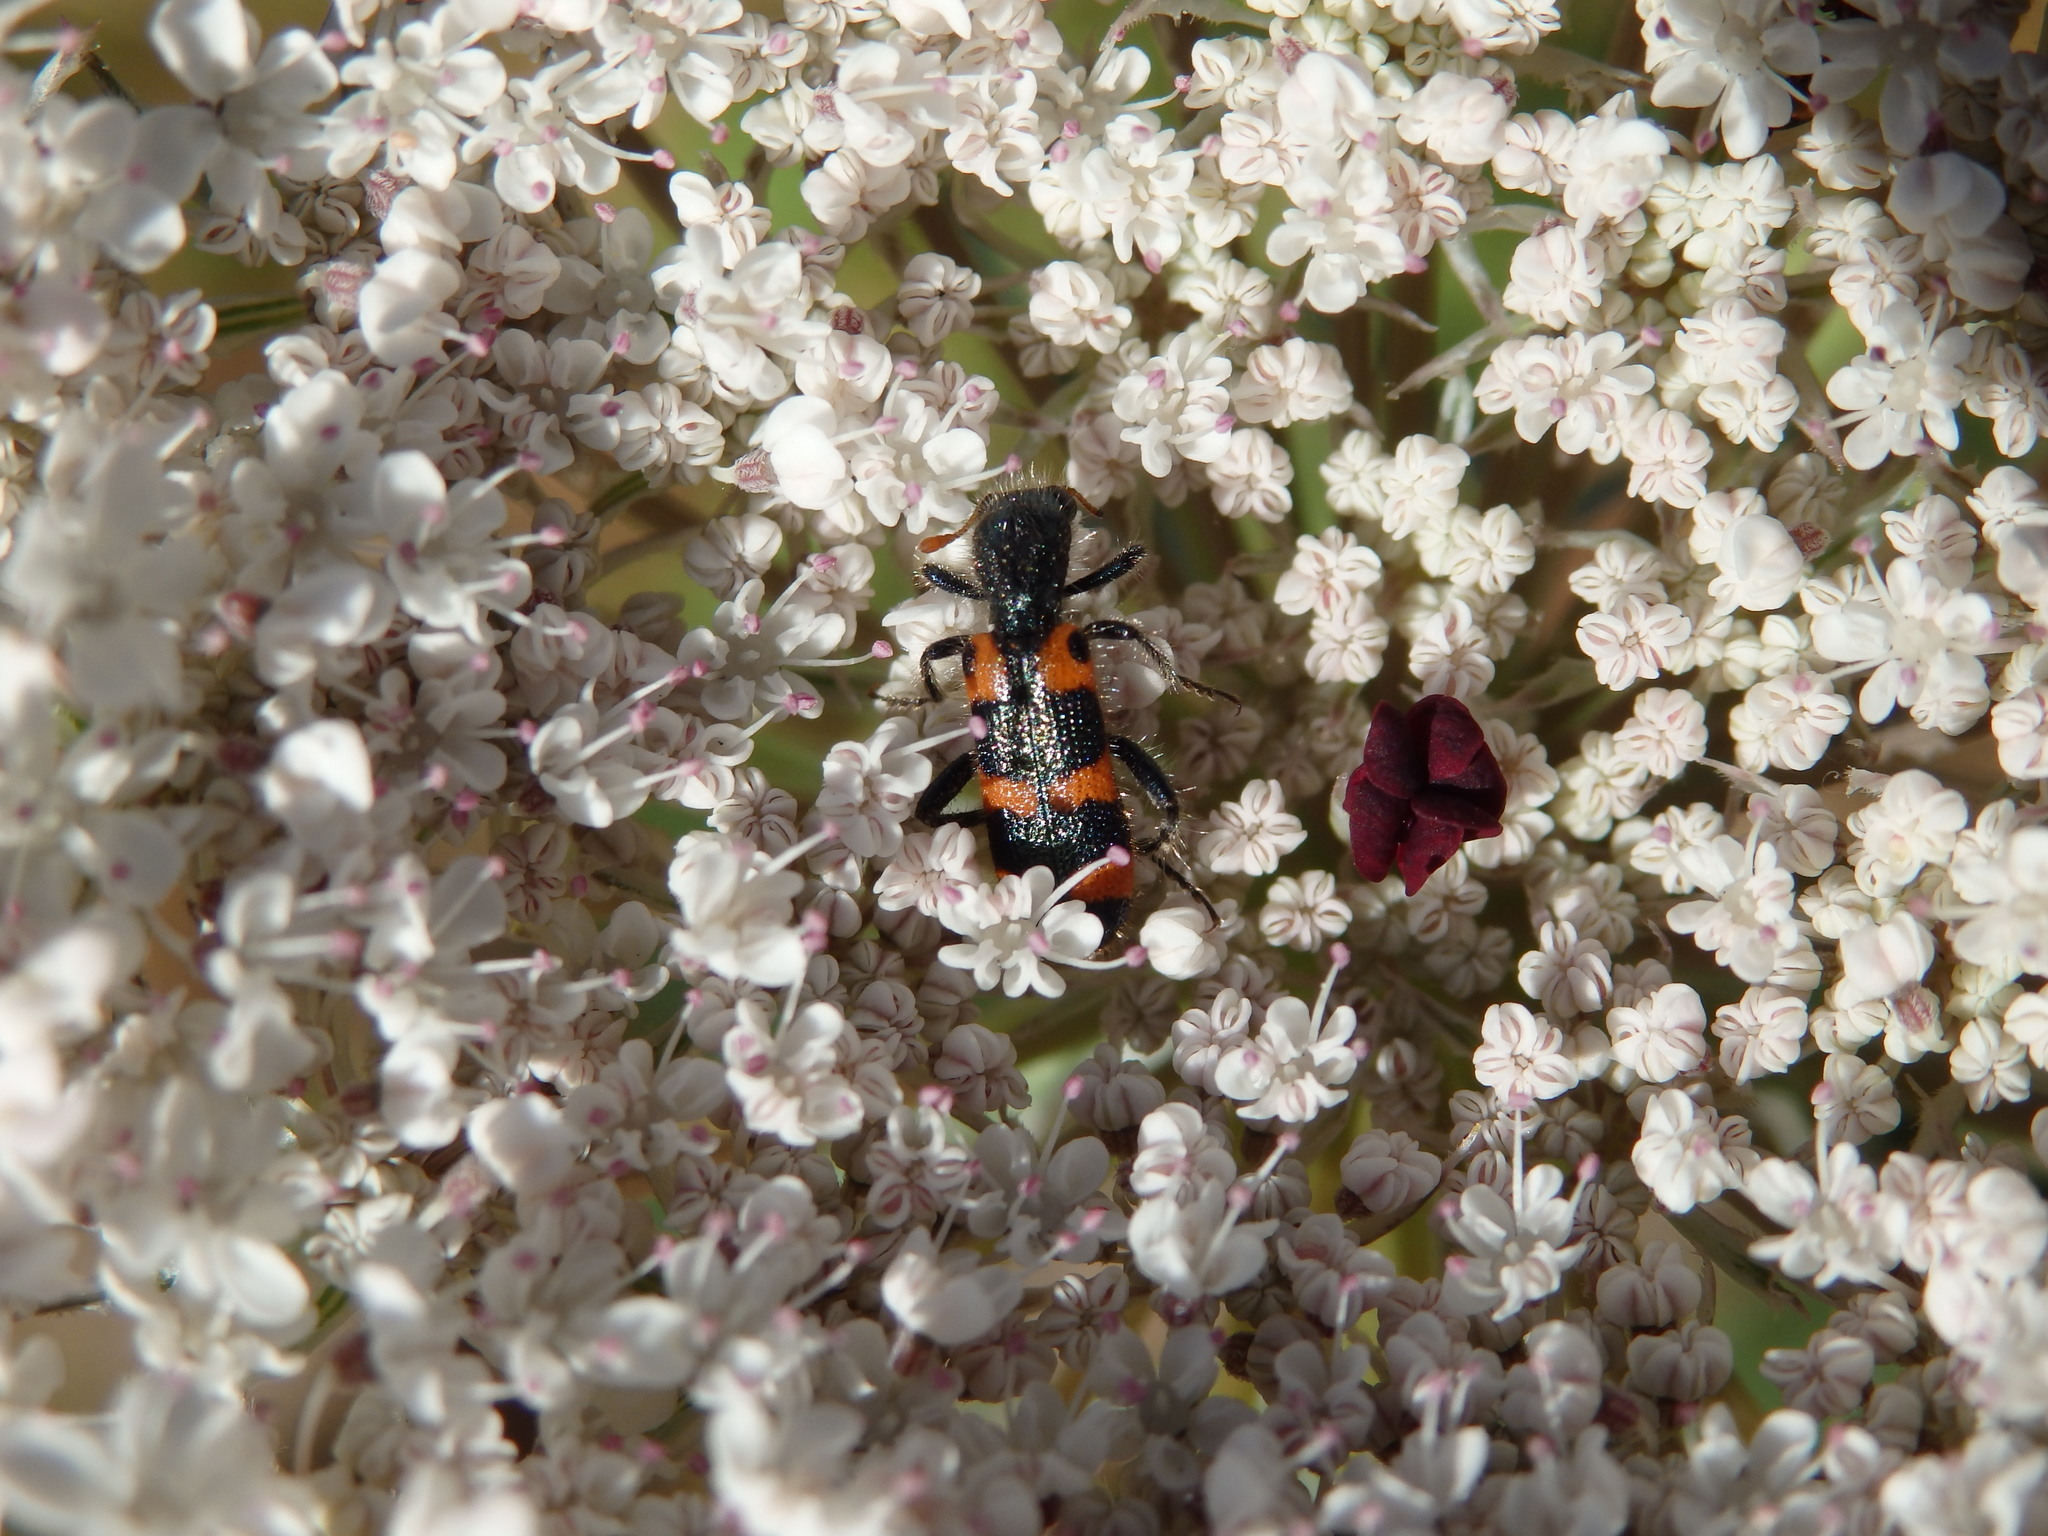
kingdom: Animalia
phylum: Arthropoda
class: Insecta
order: Coleoptera
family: Cleridae
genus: Trichodes
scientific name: Trichodes leucopsideus
